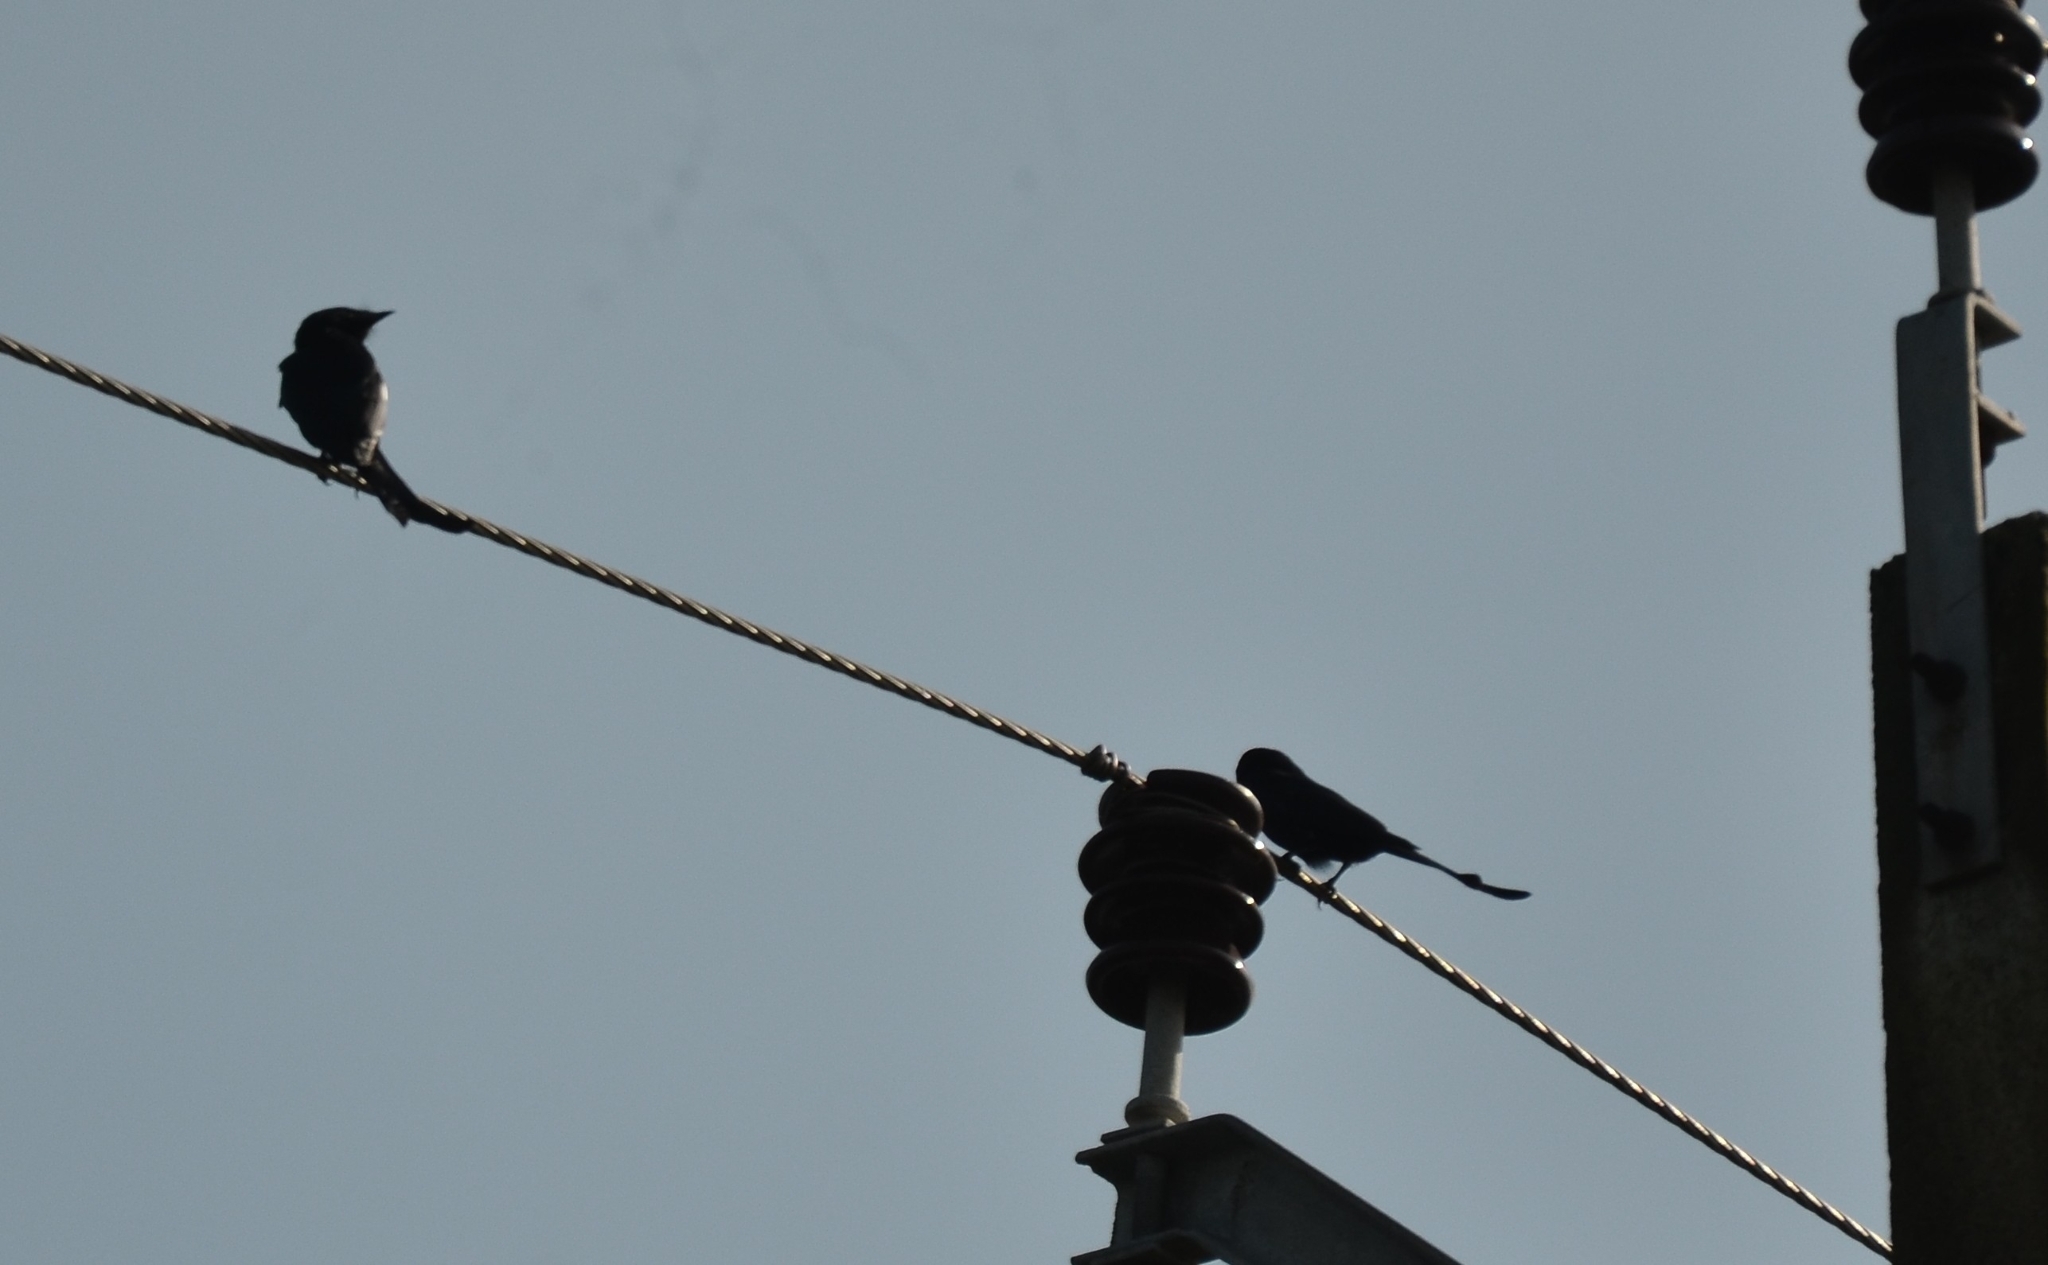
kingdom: Animalia
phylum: Chordata
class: Aves
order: Passeriformes
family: Dicruridae
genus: Dicrurus
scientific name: Dicrurus macrocercus
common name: Black drongo
